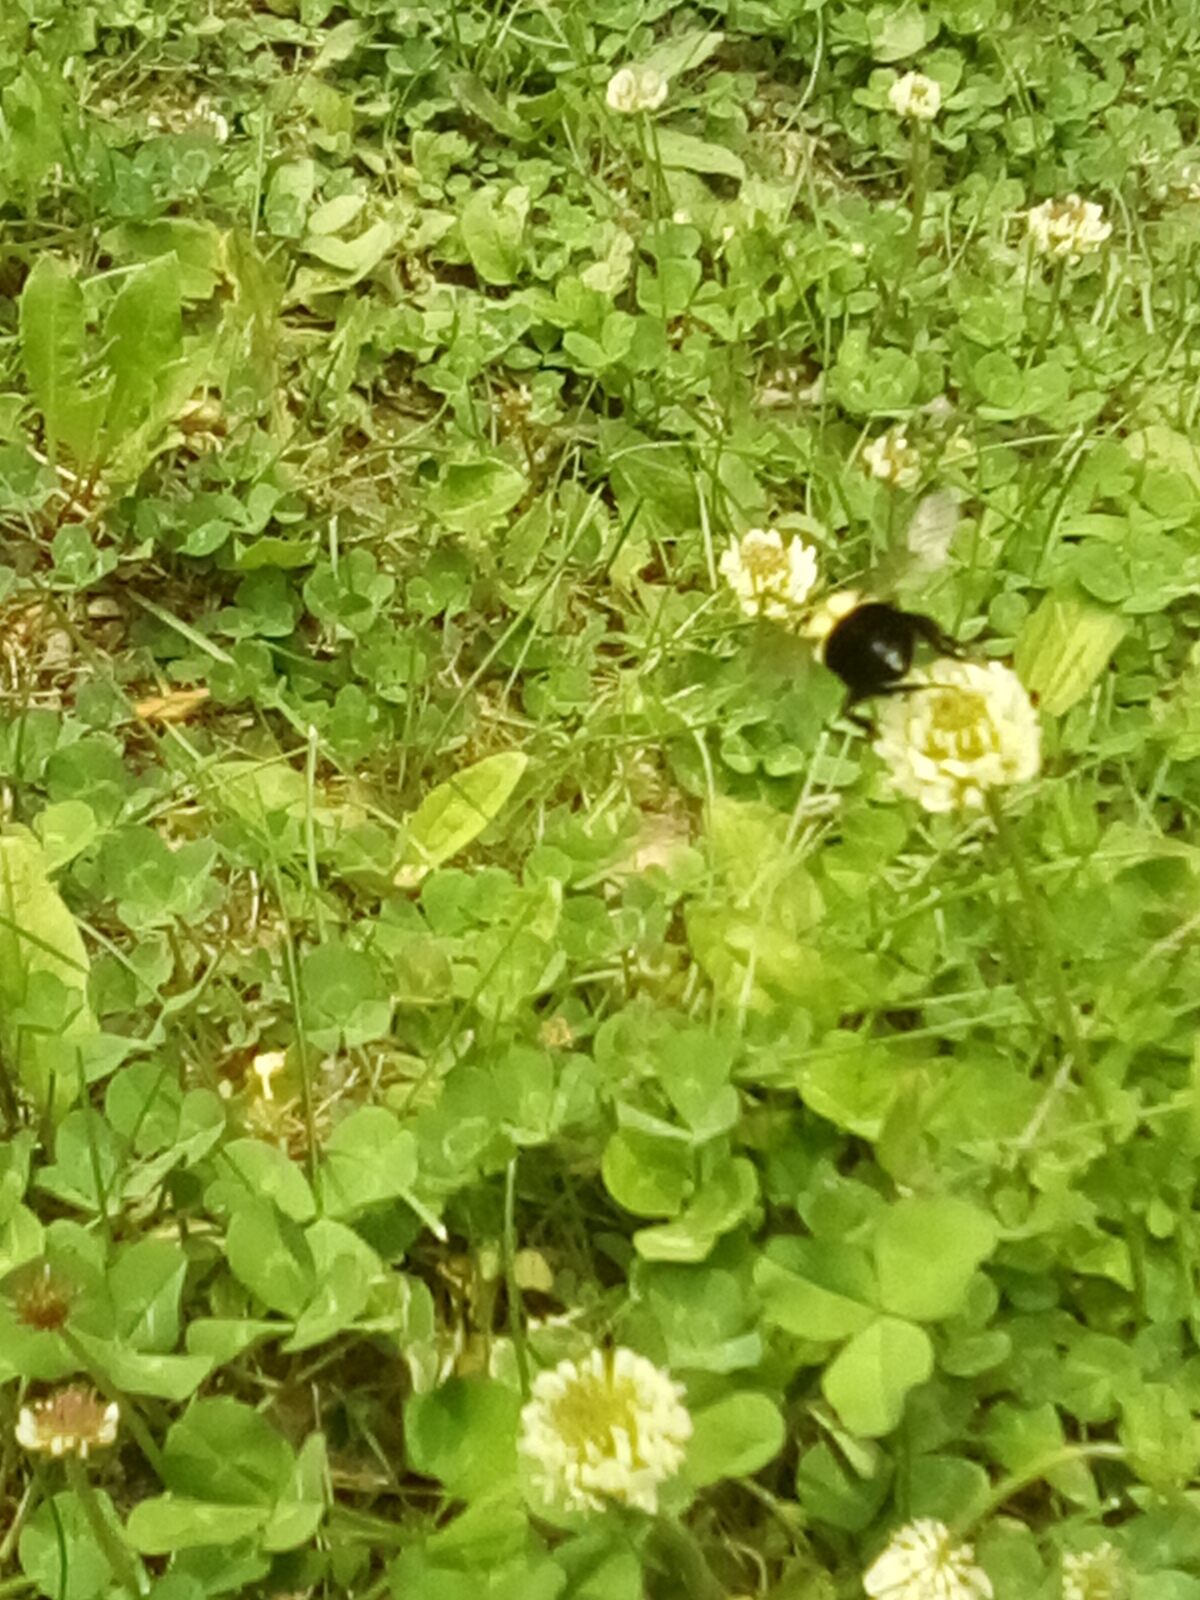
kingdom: Animalia
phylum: Arthropoda
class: Insecta
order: Hymenoptera
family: Apidae
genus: Bombus
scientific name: Bombus impatiens
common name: Common eastern bumble bee
